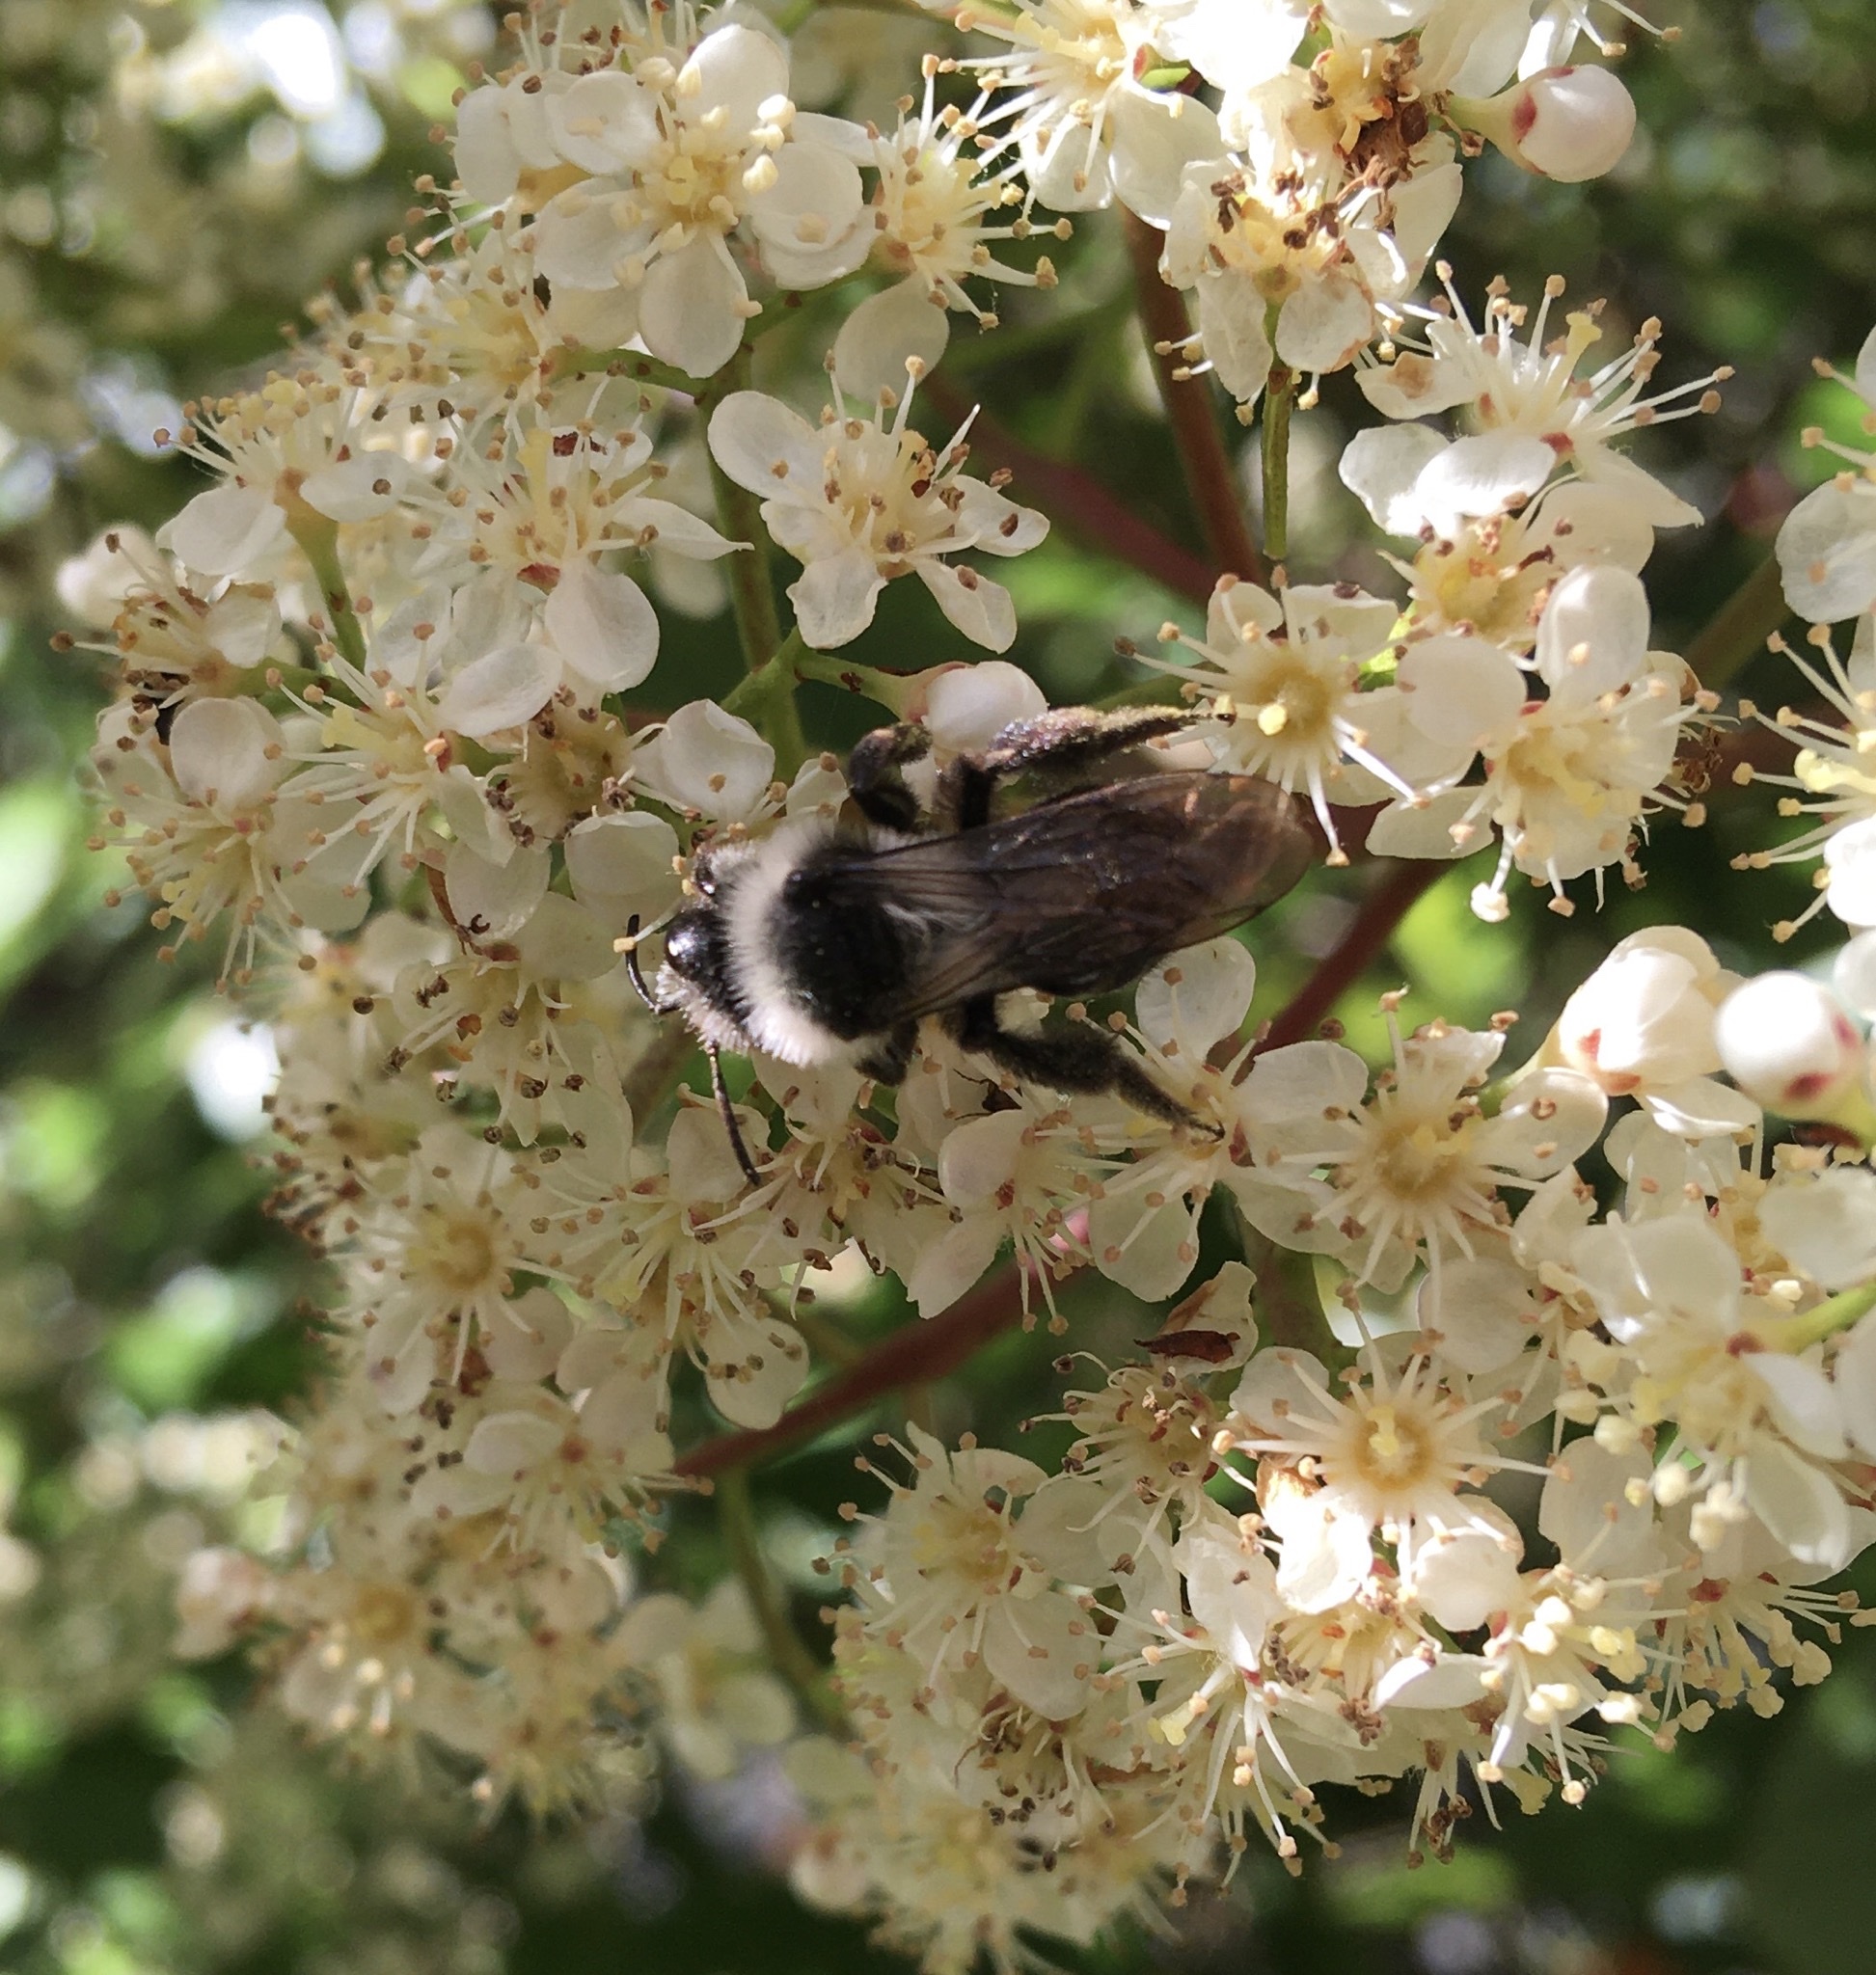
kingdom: Animalia
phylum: Arthropoda
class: Insecta
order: Hymenoptera
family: Andrenidae
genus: Andrena
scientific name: Andrena cineraria
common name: Ashy mining bee
